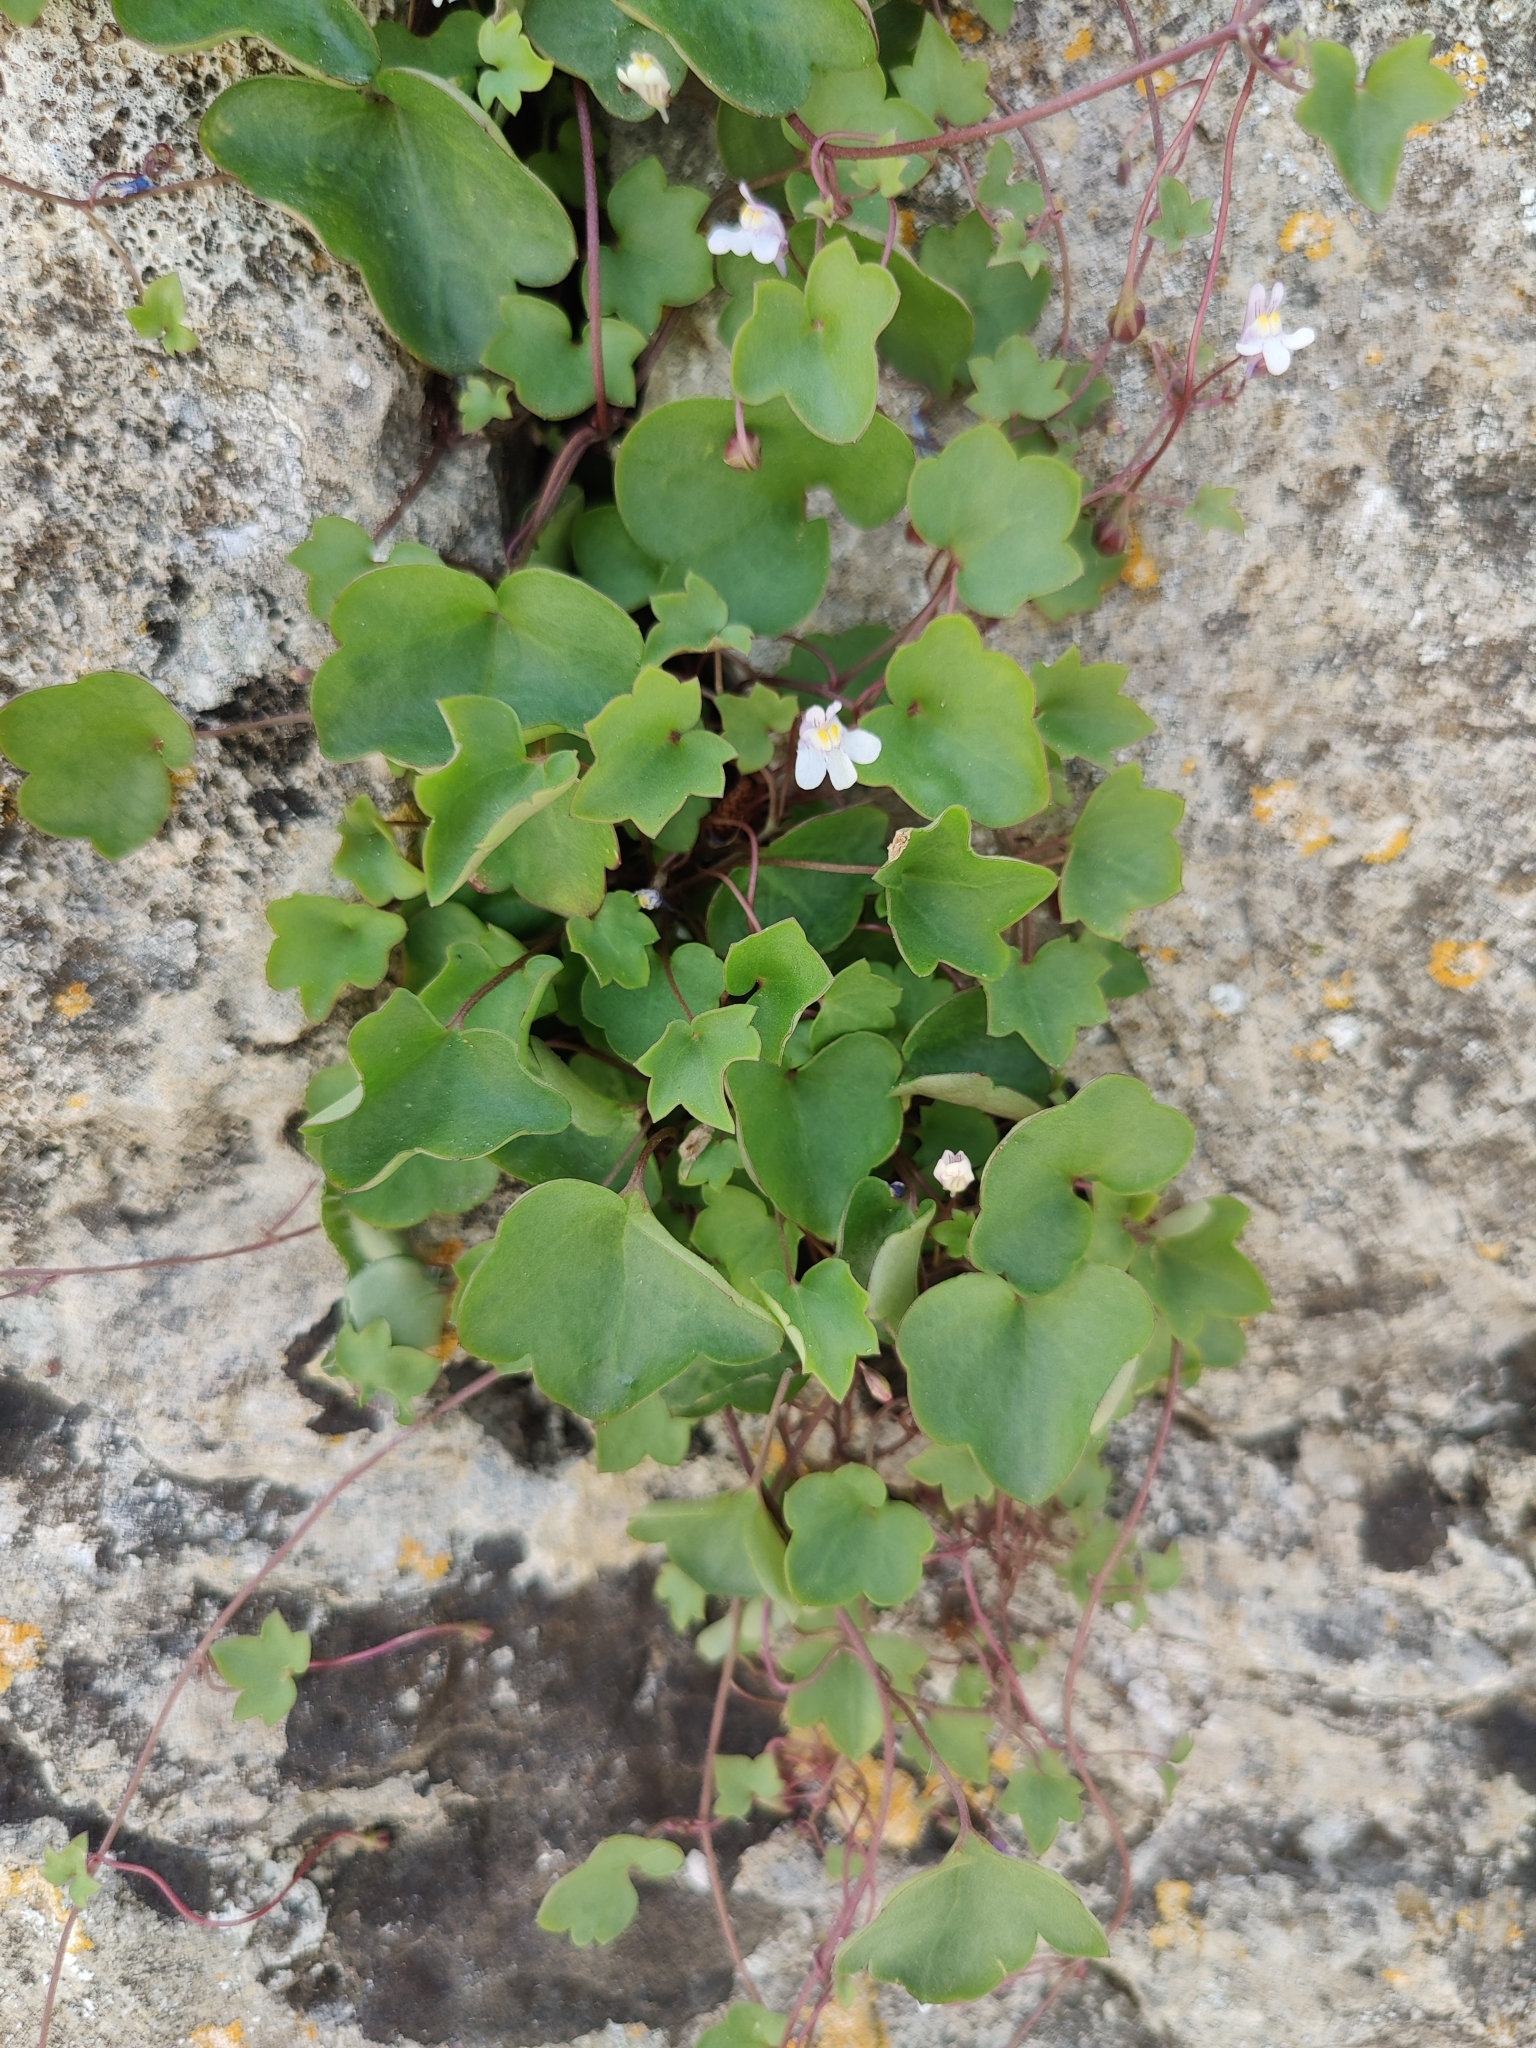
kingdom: Plantae
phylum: Tracheophyta
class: Magnoliopsida
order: Lamiales
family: Plantaginaceae
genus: Cymbalaria
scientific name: Cymbalaria muralis
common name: Ivy-leaved toadflax
